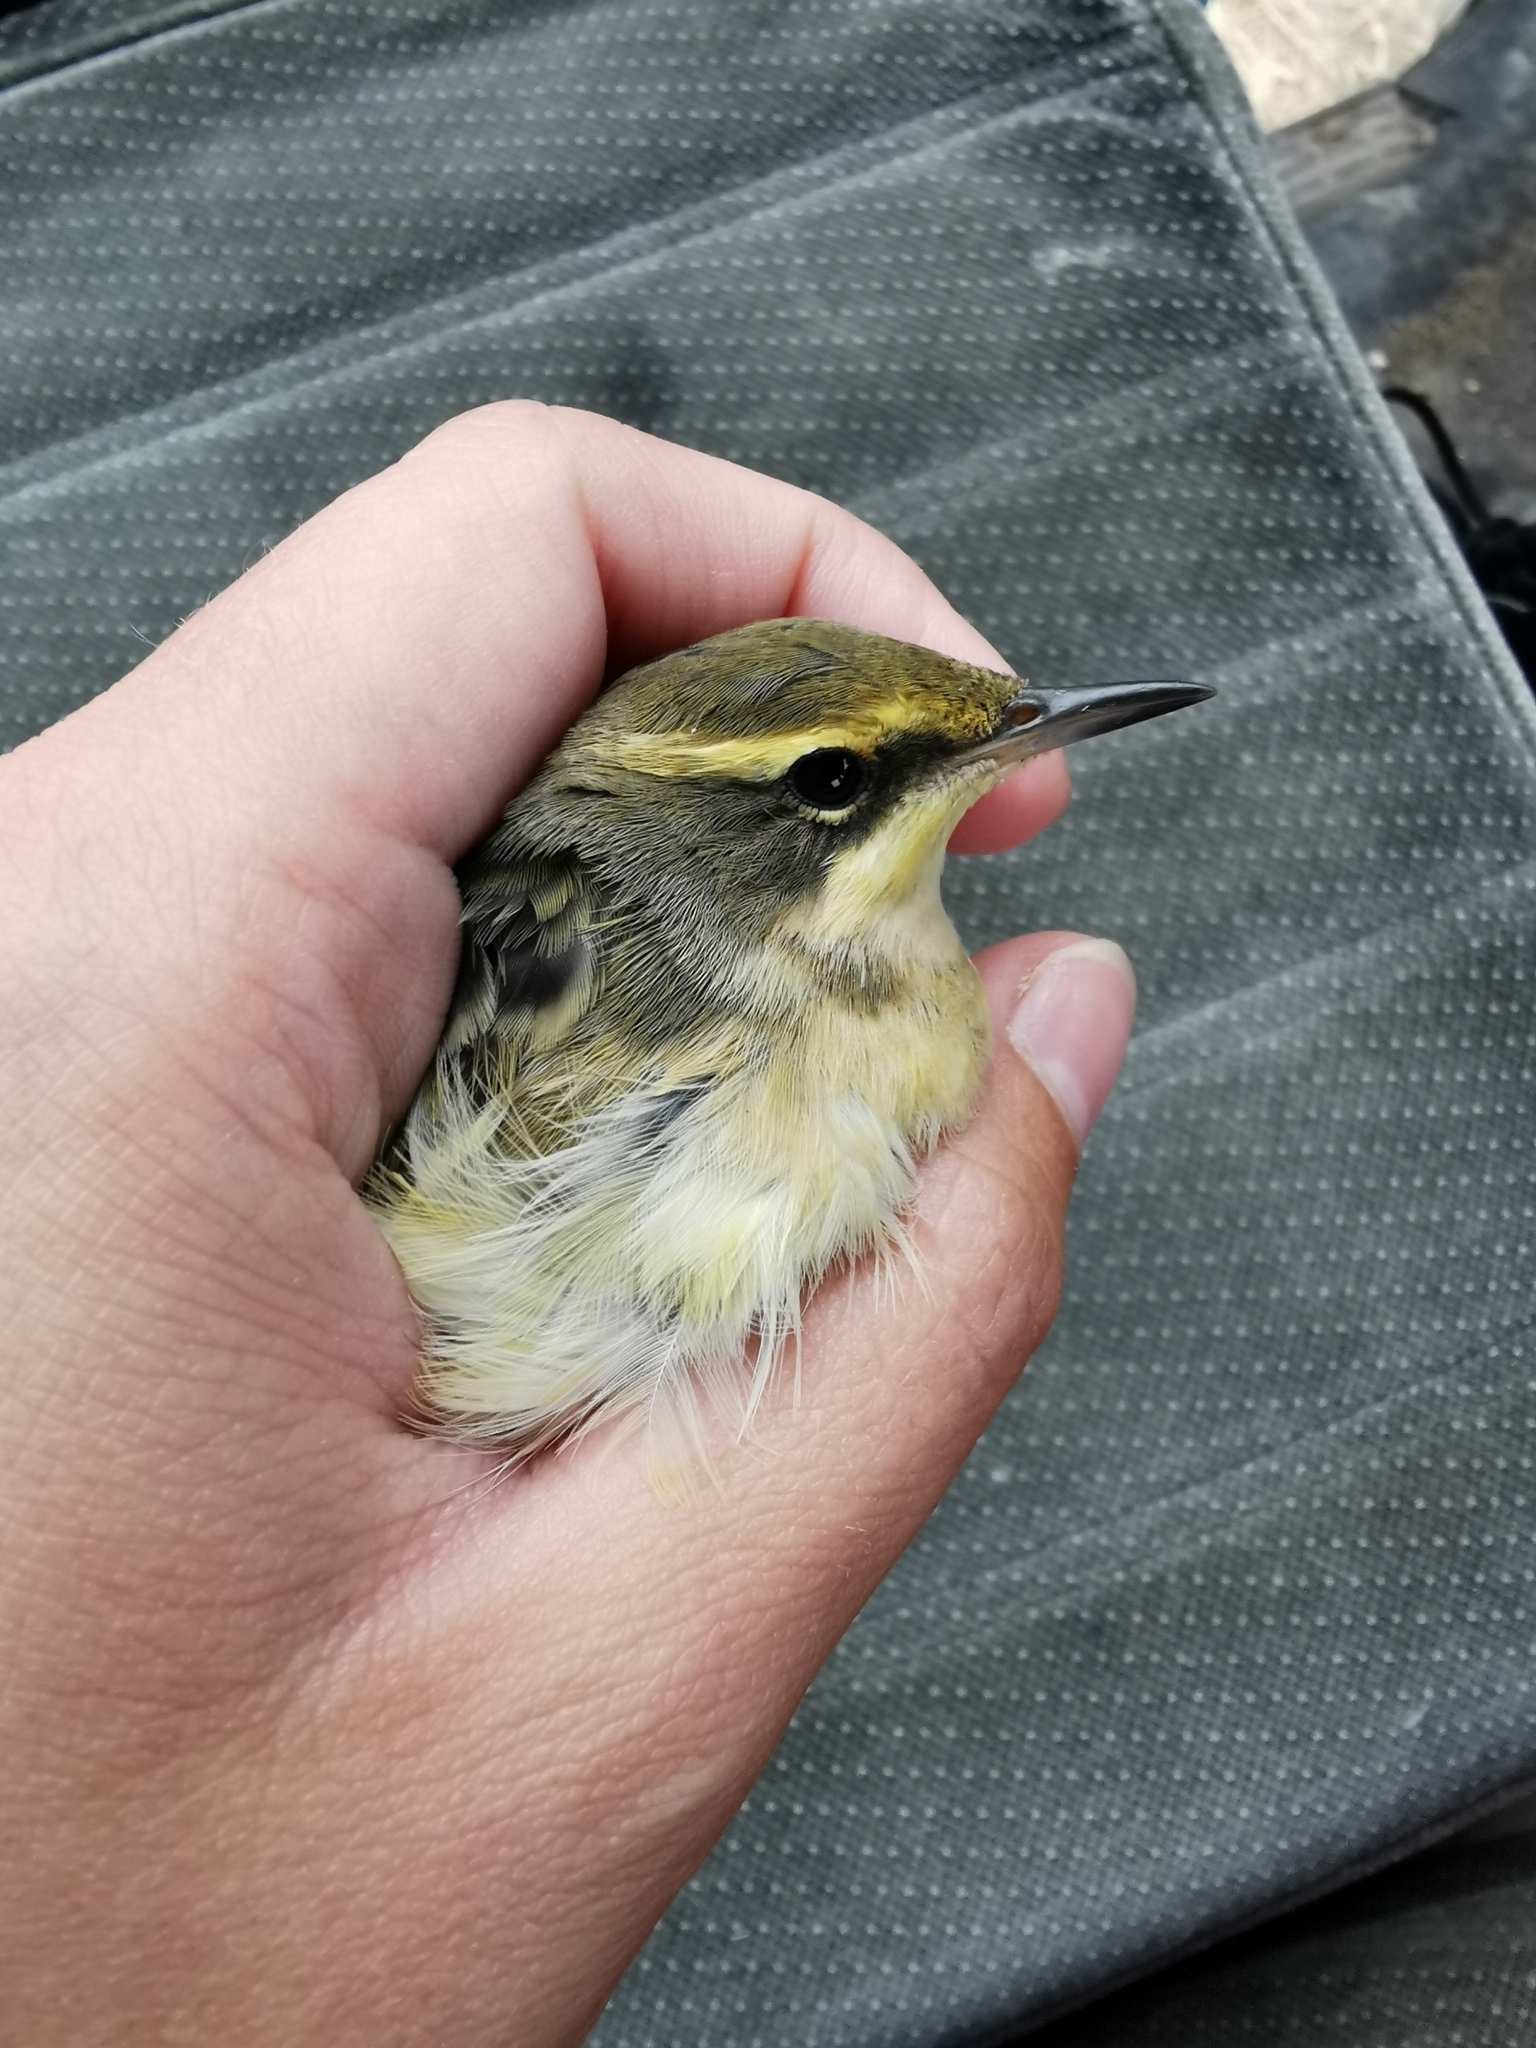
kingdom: Animalia
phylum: Chordata
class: Aves
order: Passeriformes
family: Motacillidae
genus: Motacilla
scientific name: Motacilla tschutschensis
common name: Eastern yellow wagtail
